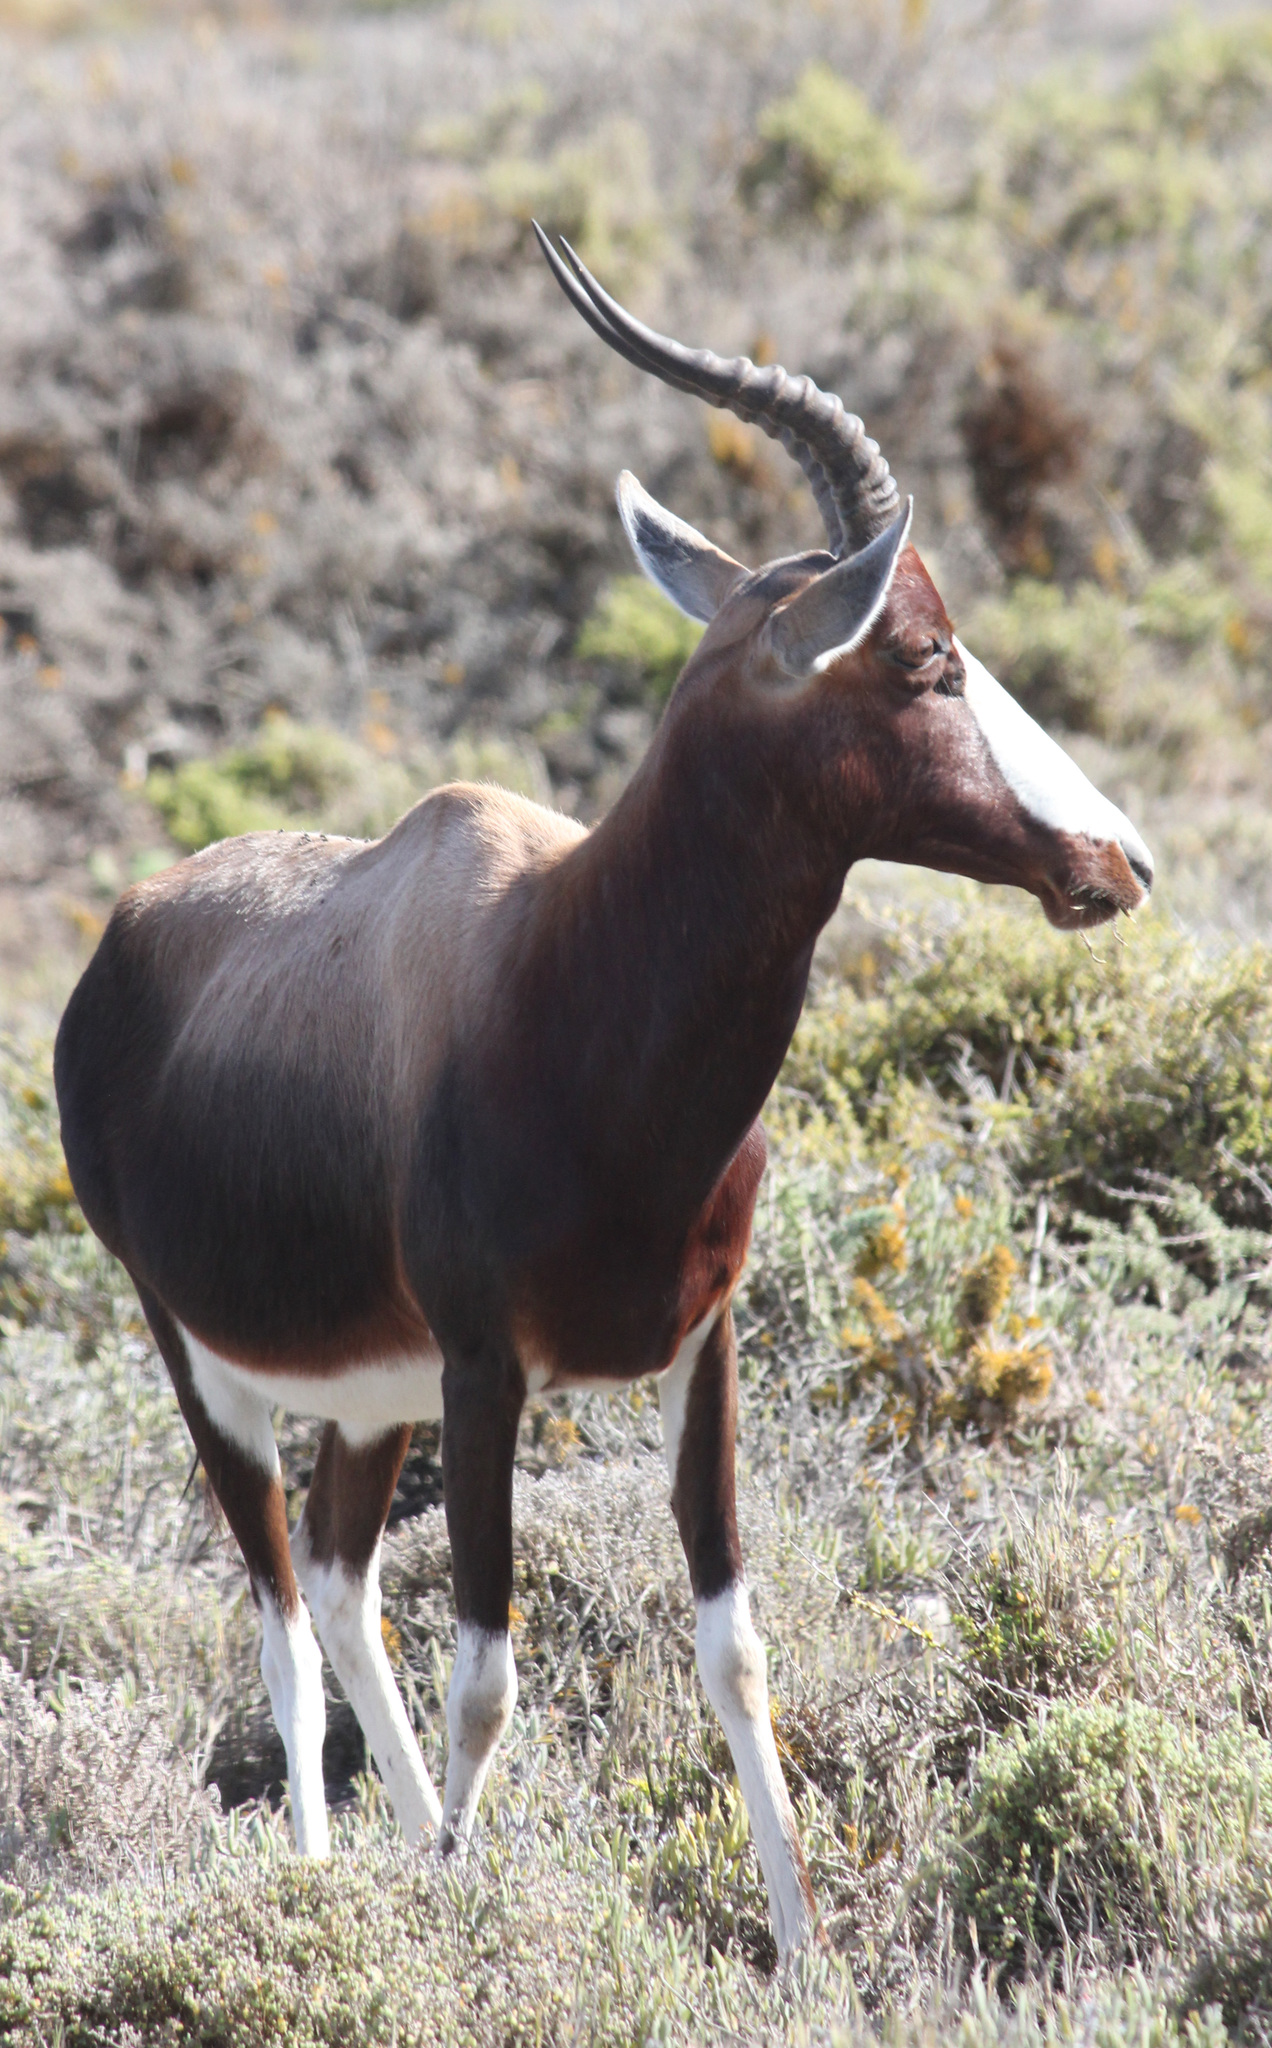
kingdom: Animalia
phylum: Chordata
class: Mammalia
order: Artiodactyla
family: Bovidae
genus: Damaliscus
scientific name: Damaliscus pygargus
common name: Bontebok
